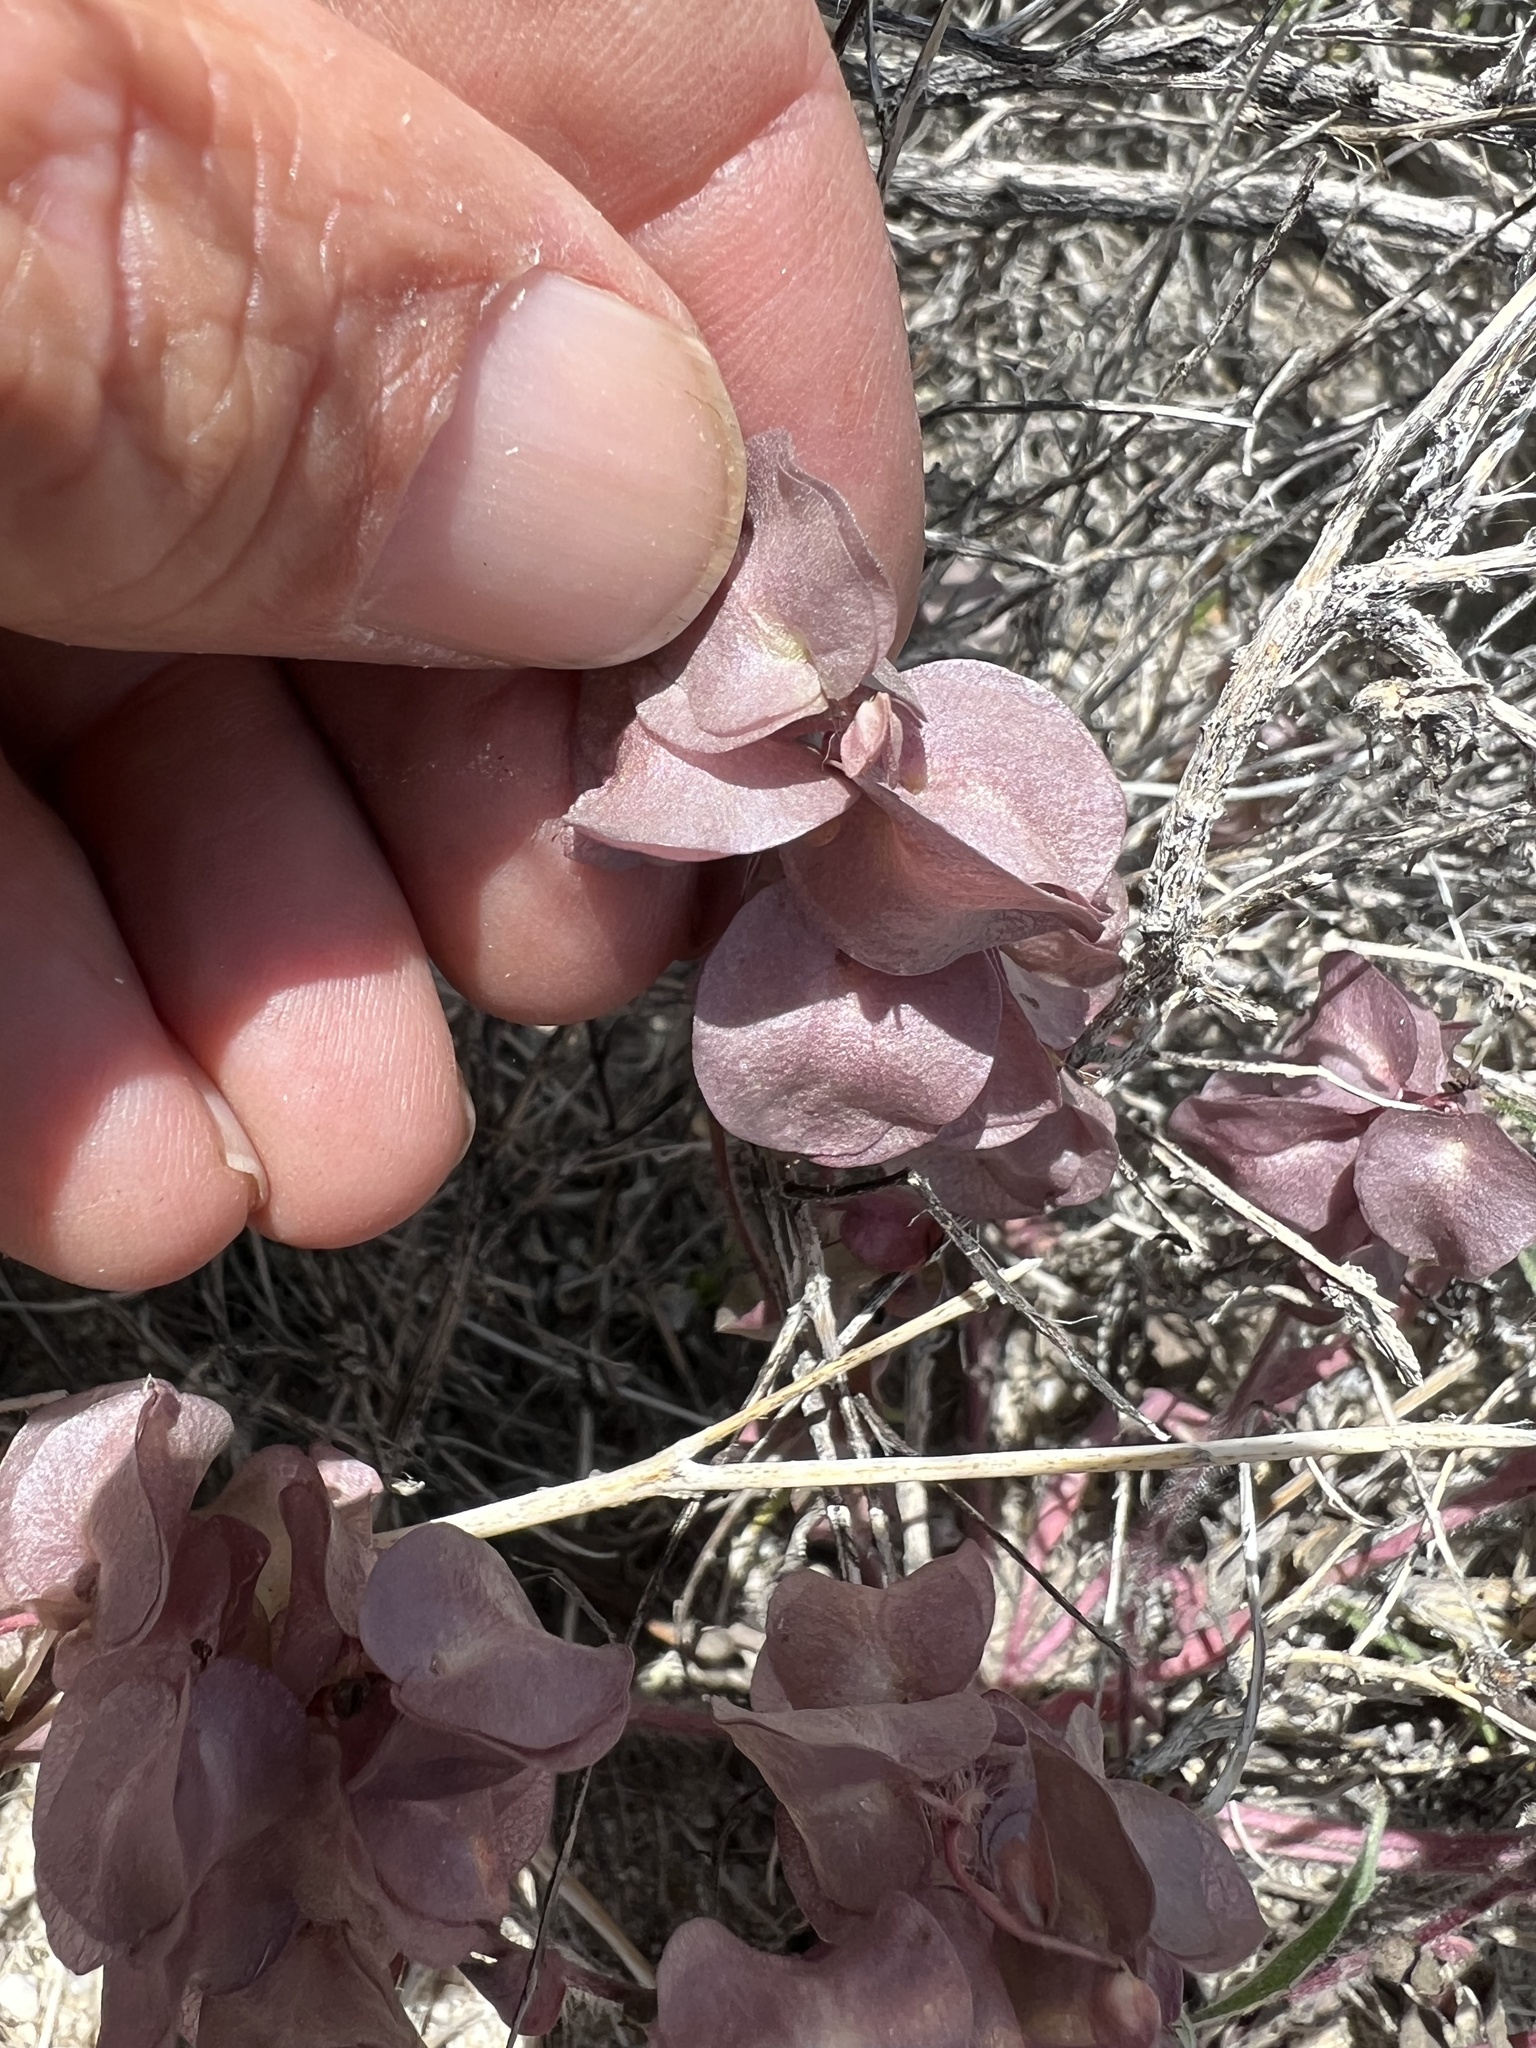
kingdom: Plantae
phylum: Tracheophyta
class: Magnoliopsida
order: Boraginales
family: Hydrophyllaceae
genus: Tricardia
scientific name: Tricardia watsonii
